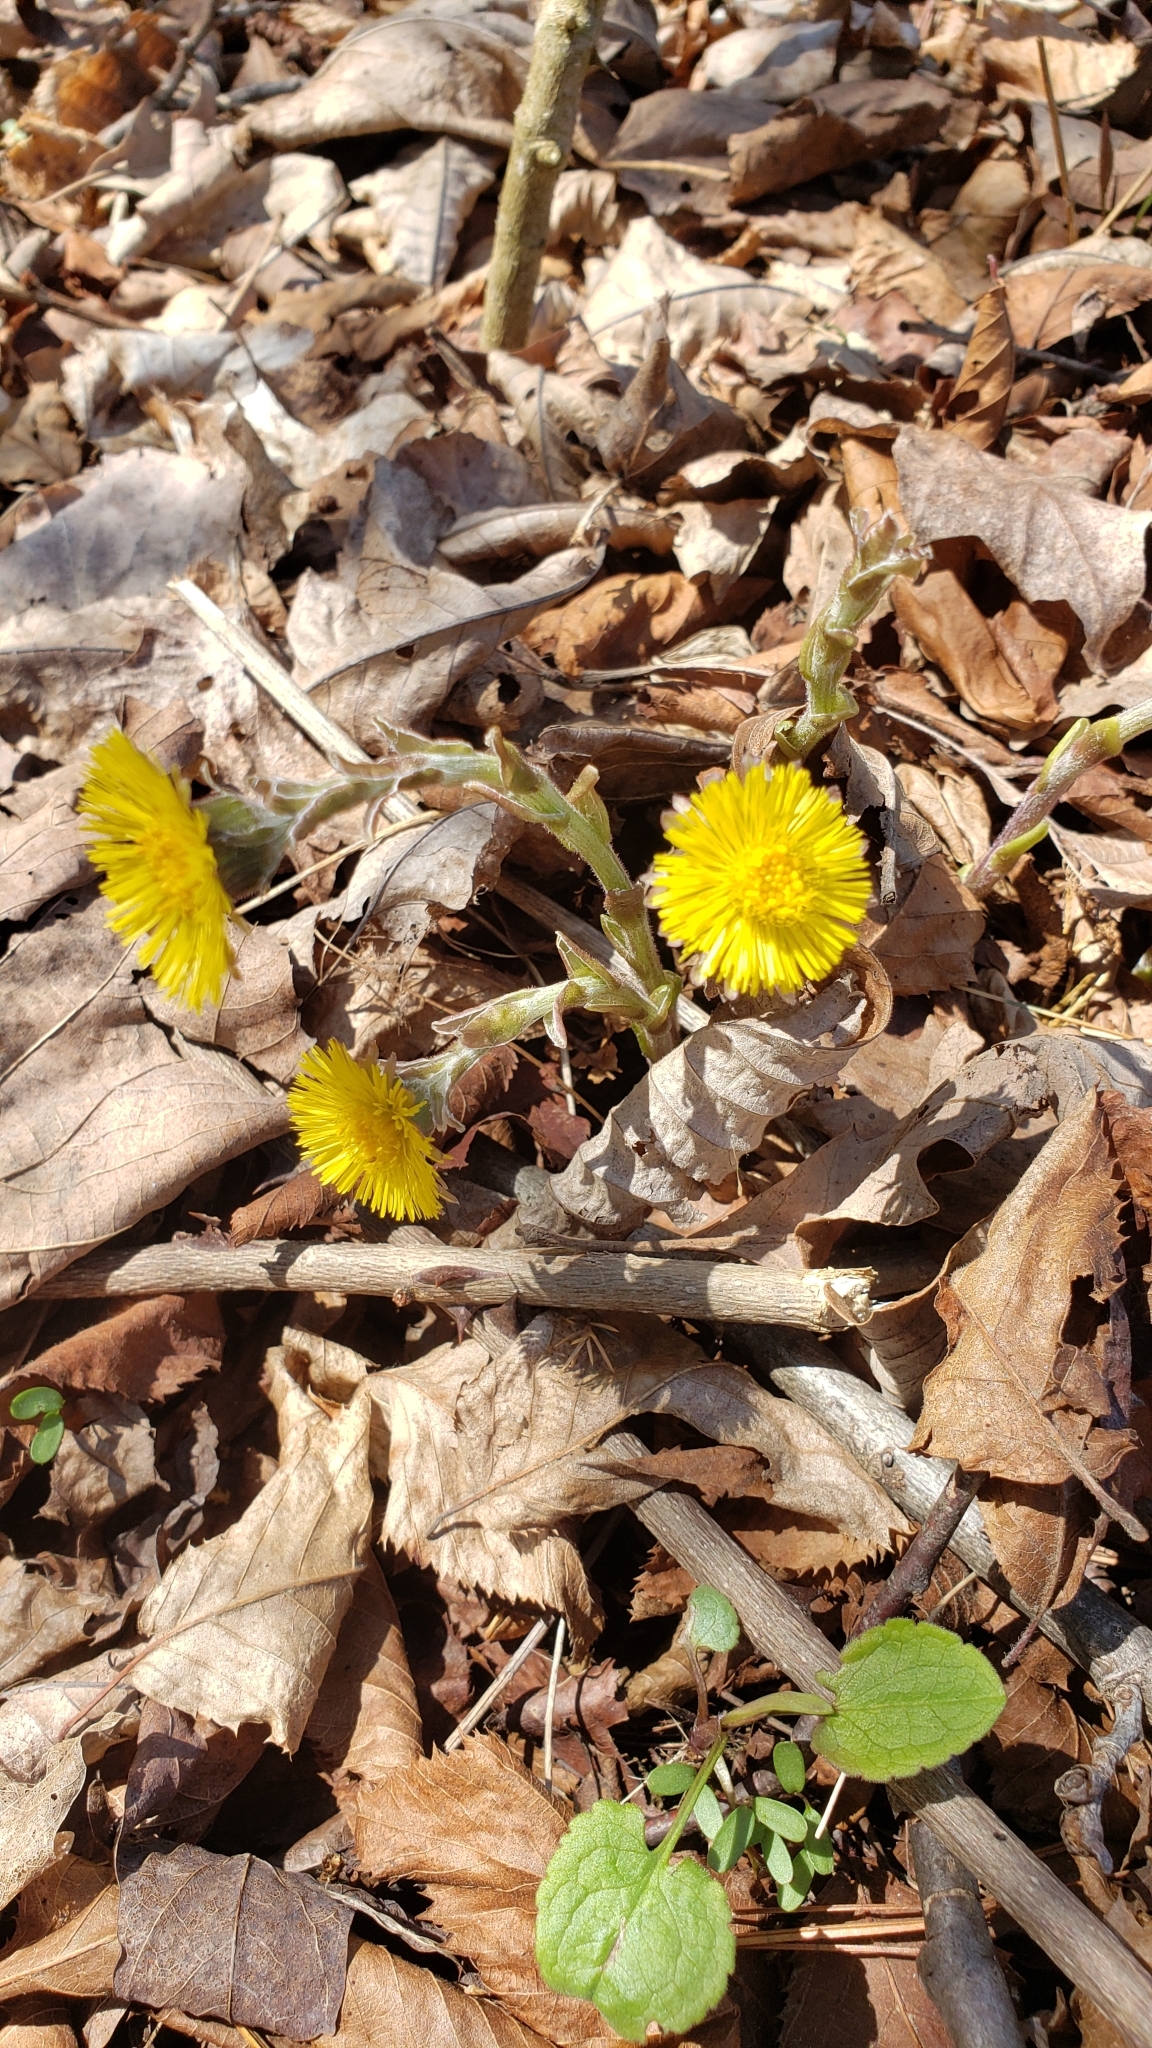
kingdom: Plantae
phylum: Tracheophyta
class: Magnoliopsida
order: Asterales
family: Asteraceae
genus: Tussilago
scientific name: Tussilago farfara
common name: Coltsfoot
